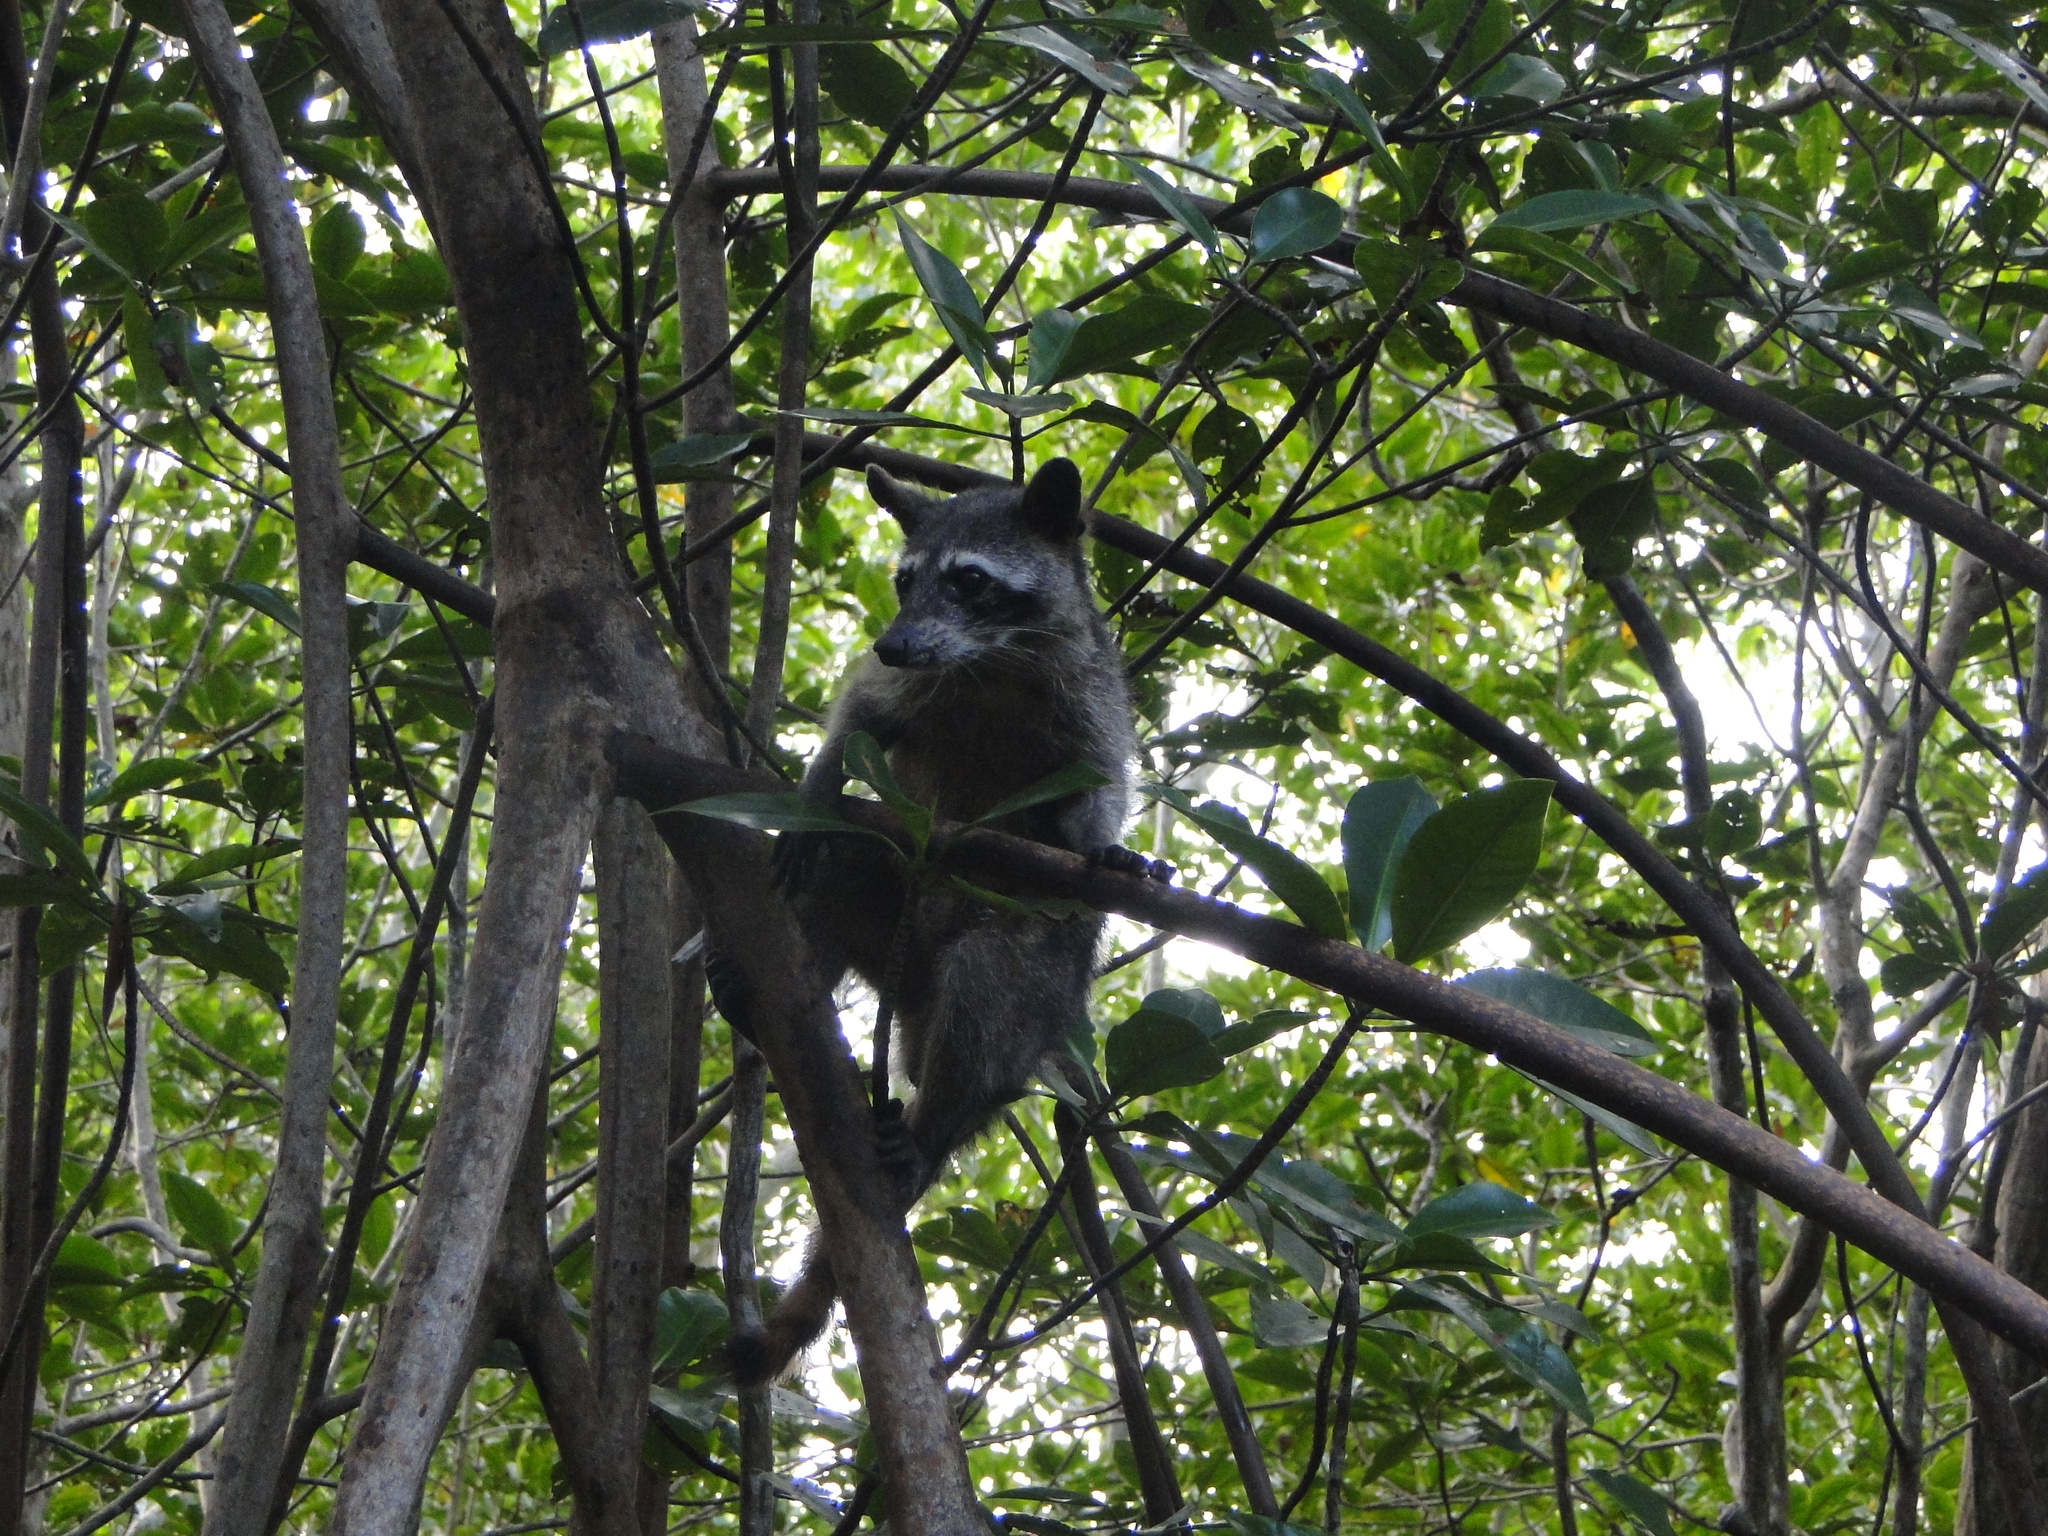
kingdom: Animalia
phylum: Chordata
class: Mammalia
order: Carnivora
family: Procyonidae
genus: Procyon
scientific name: Procyon lotor
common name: Raccoon
